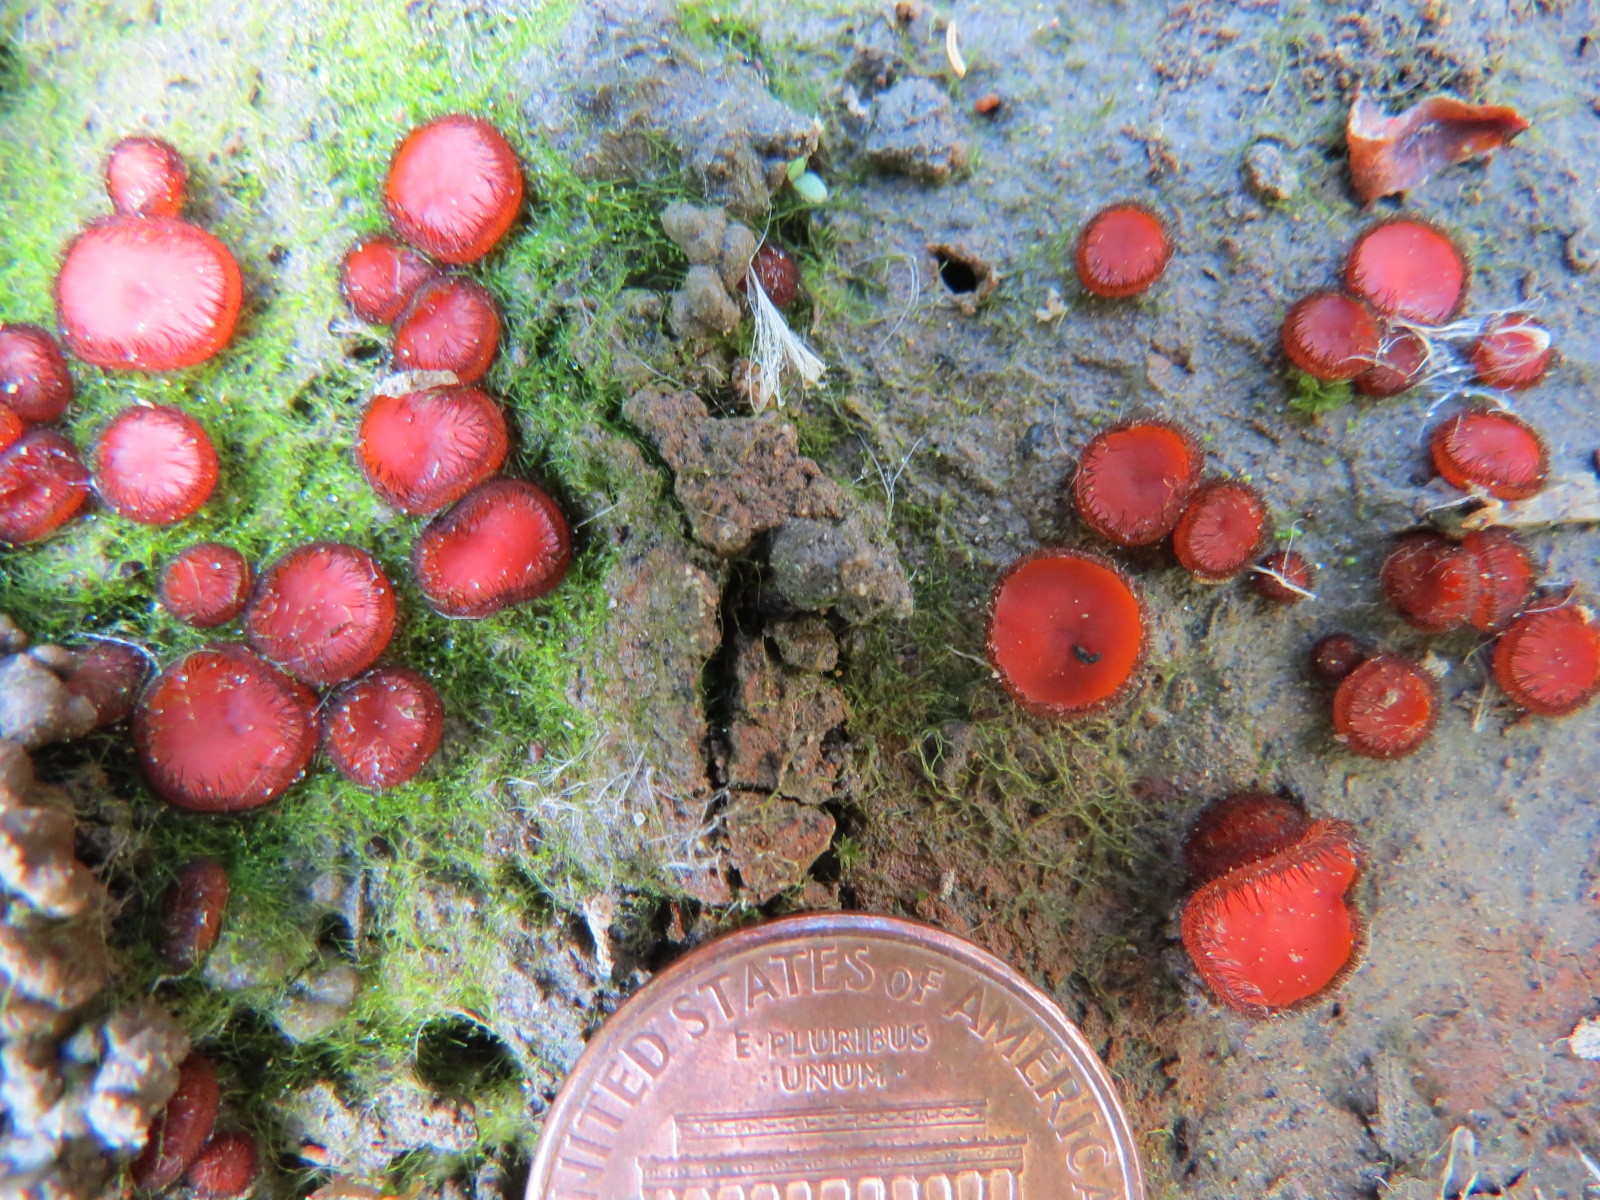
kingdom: Fungi
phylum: Ascomycota
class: Pezizomycetes
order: Pezizales
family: Pyronemataceae
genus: Scutellinia
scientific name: Scutellinia
